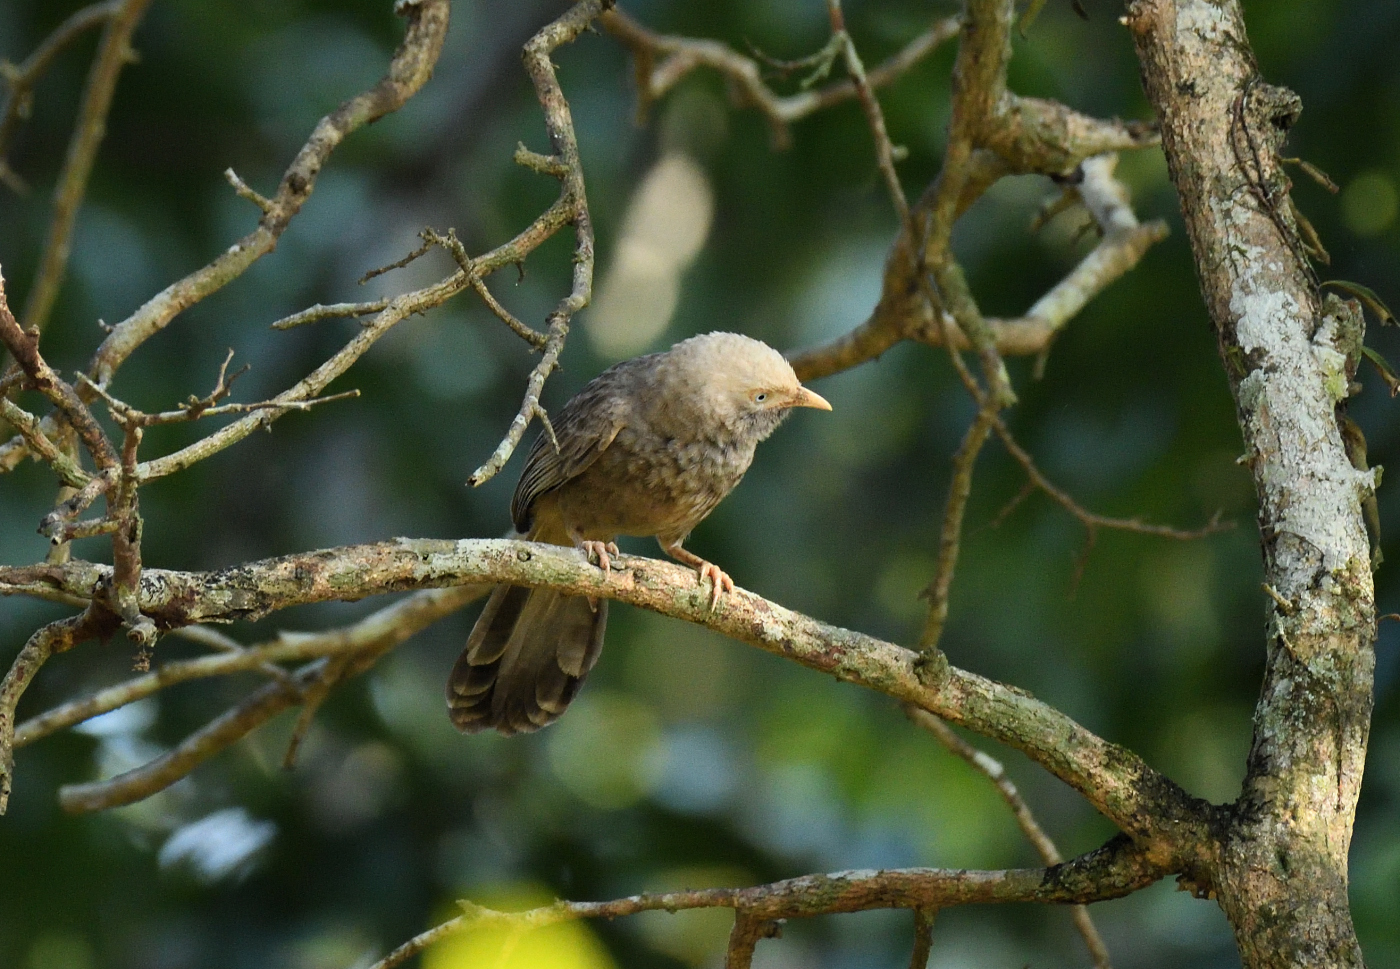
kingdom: Animalia
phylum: Chordata
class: Aves
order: Passeriformes
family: Leiothrichidae
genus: Turdoides
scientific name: Turdoides affinis
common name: Yellow-billed babbler
